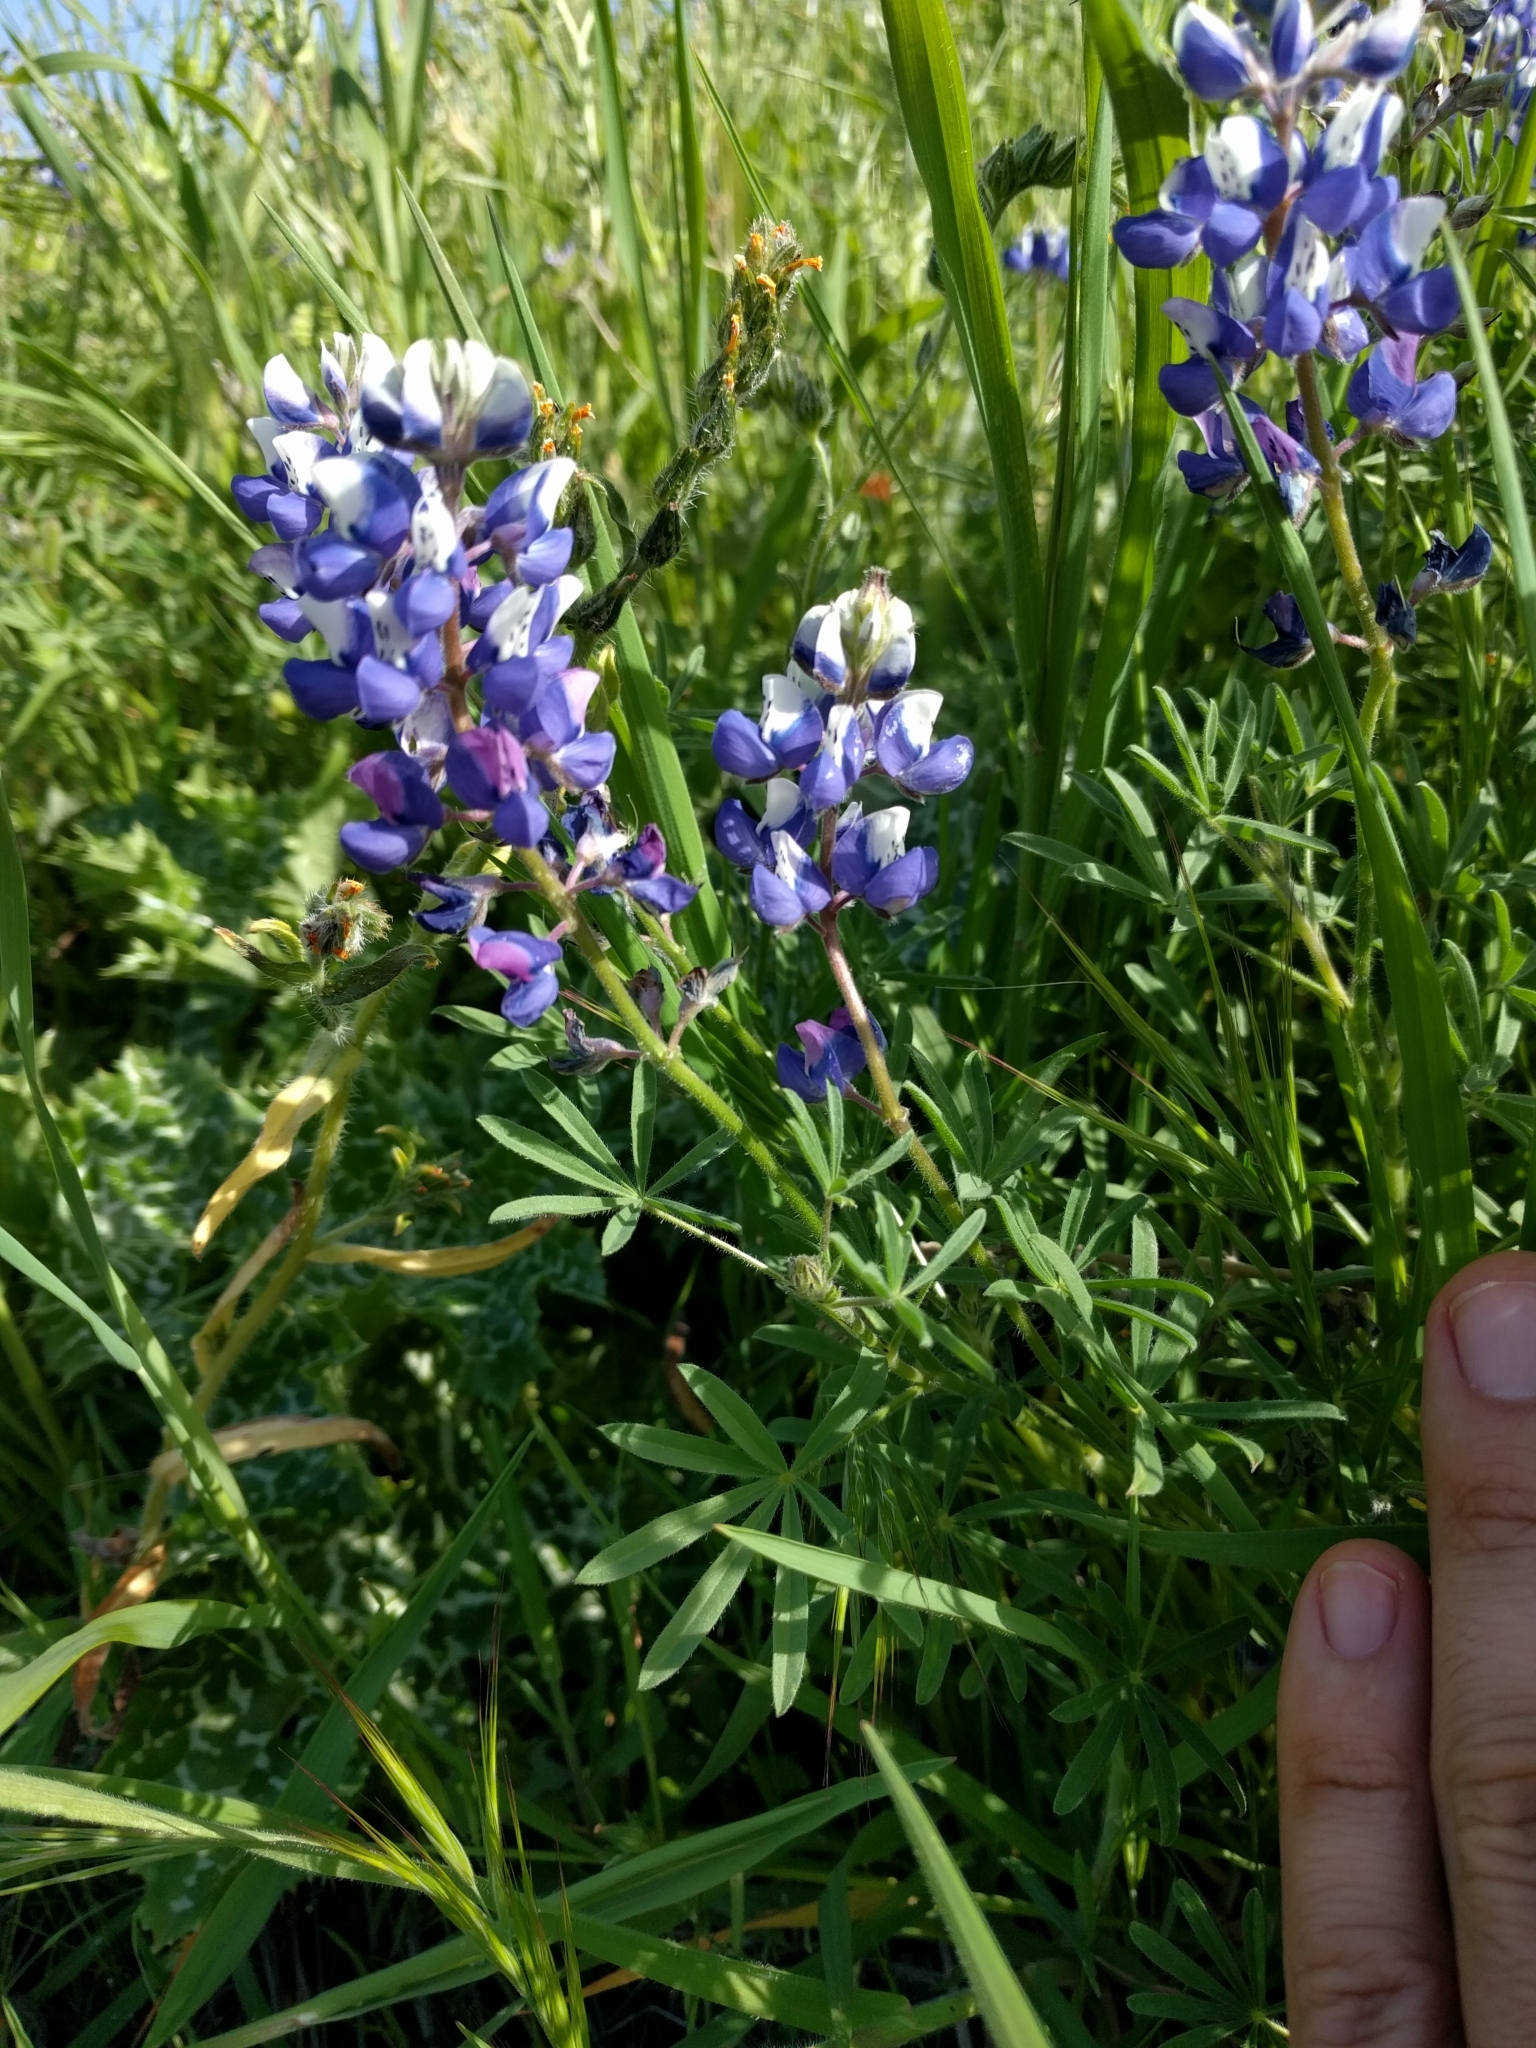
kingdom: Plantae
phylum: Tracheophyta
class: Magnoliopsida
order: Fabales
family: Fabaceae
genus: Lupinus
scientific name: Lupinus nanus
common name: Orean blue lupin
